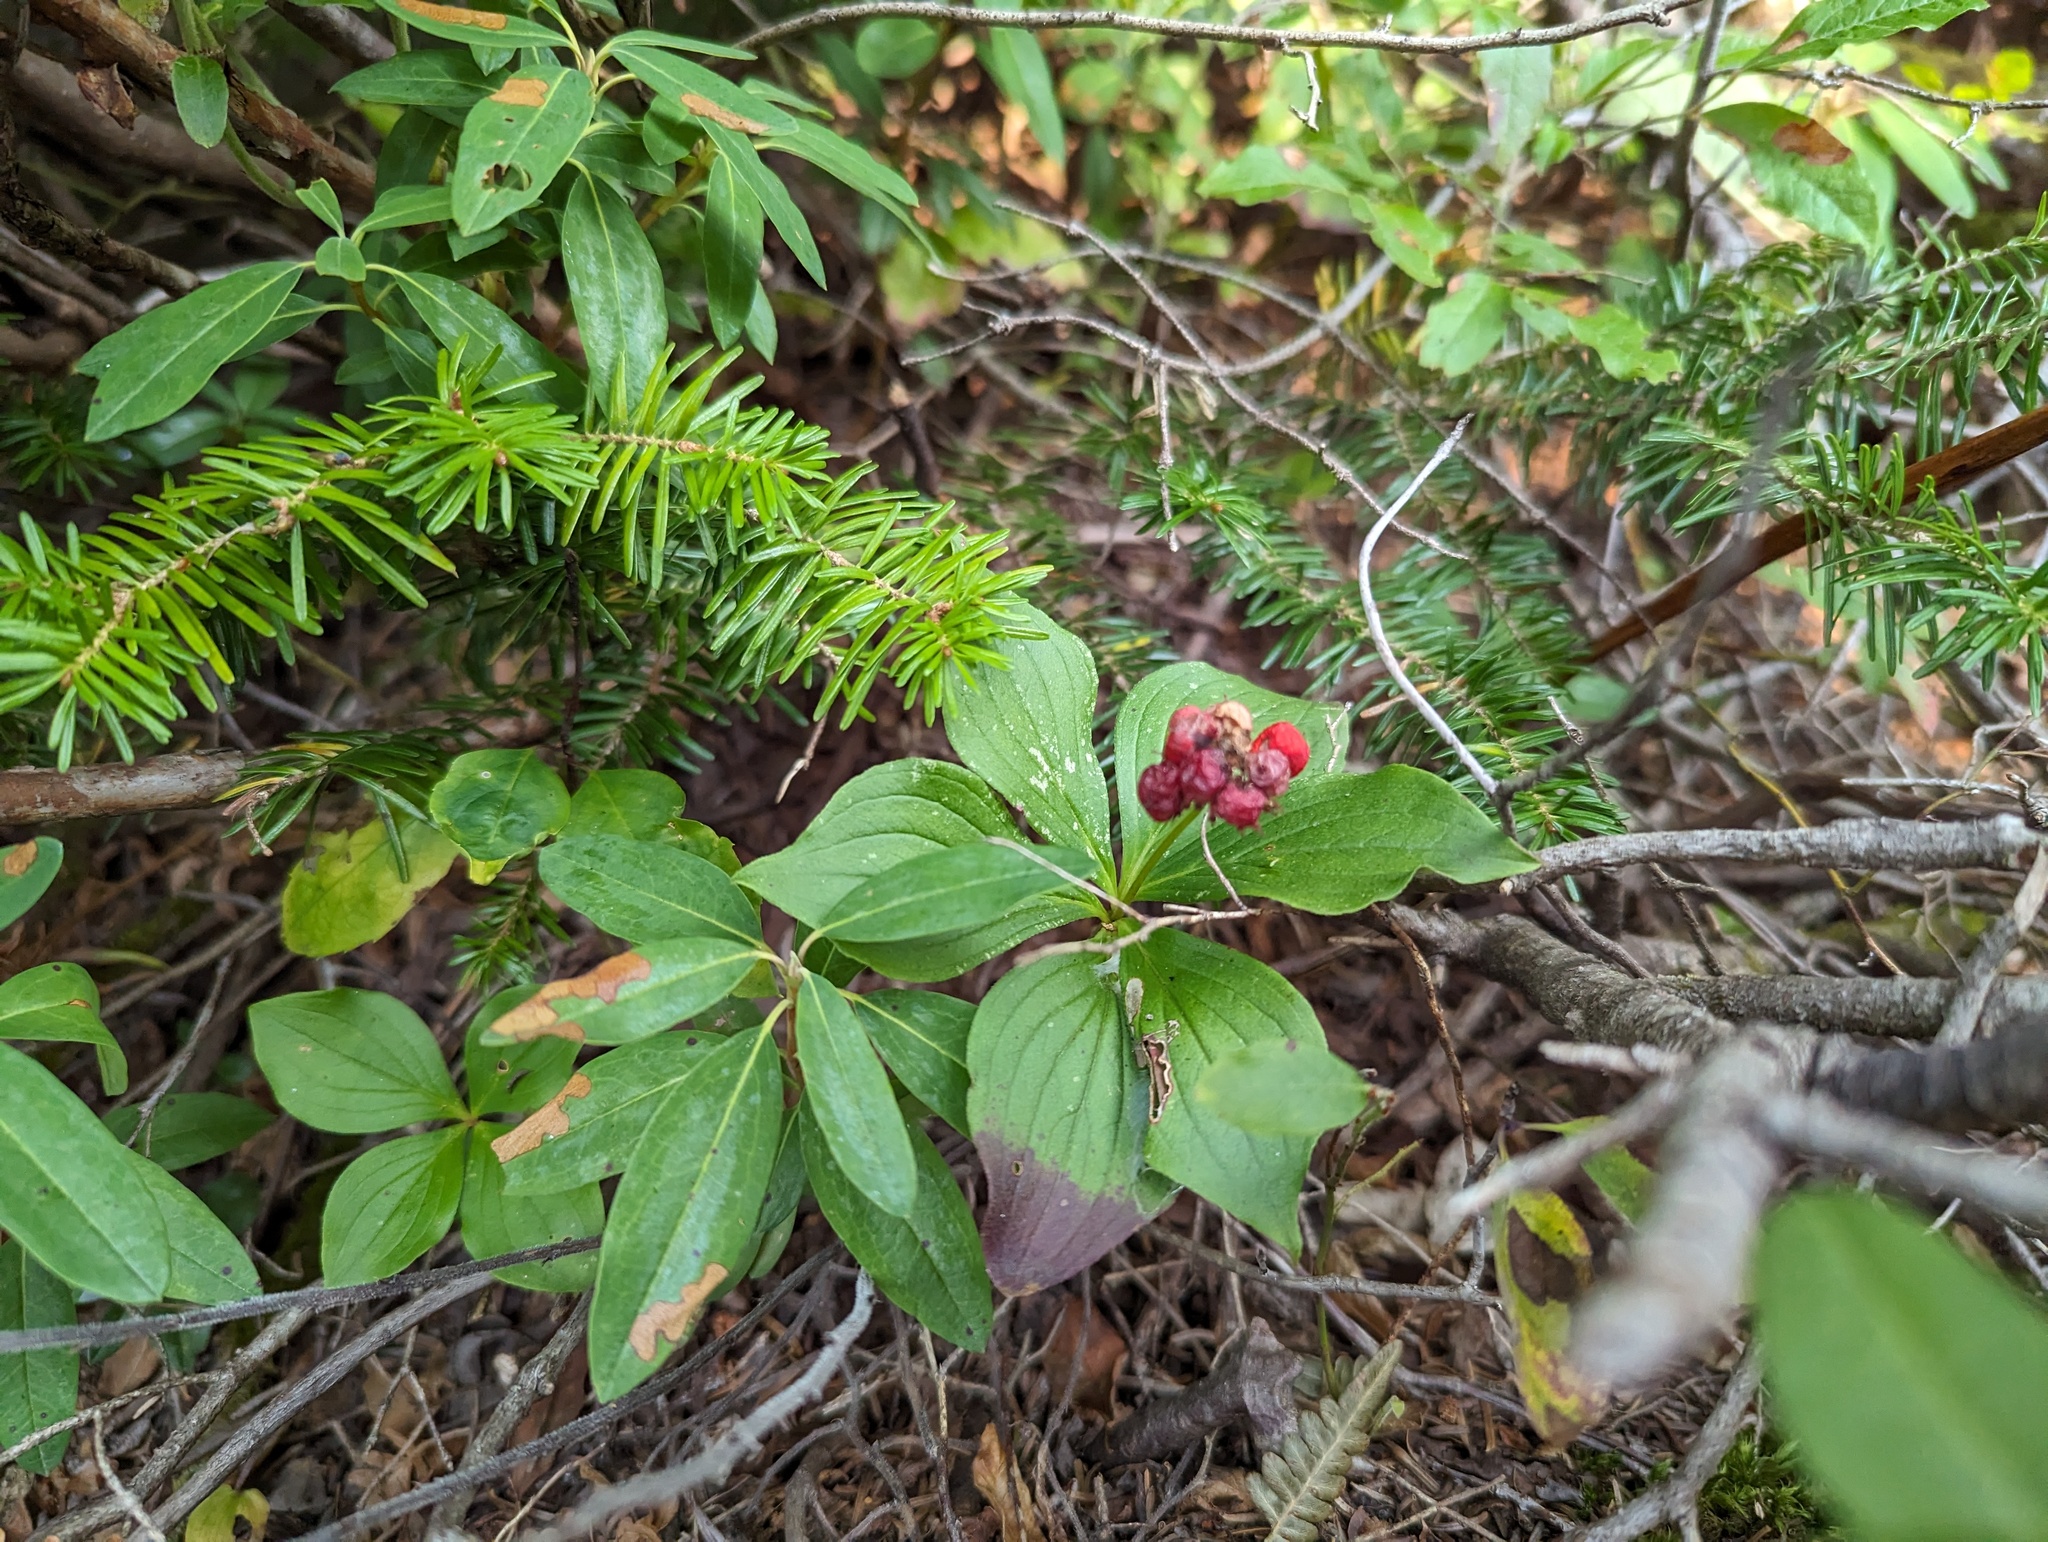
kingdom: Plantae
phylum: Tracheophyta
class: Magnoliopsida
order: Cornales
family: Cornaceae
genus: Cornus
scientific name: Cornus canadensis
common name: Creeping dogwood
